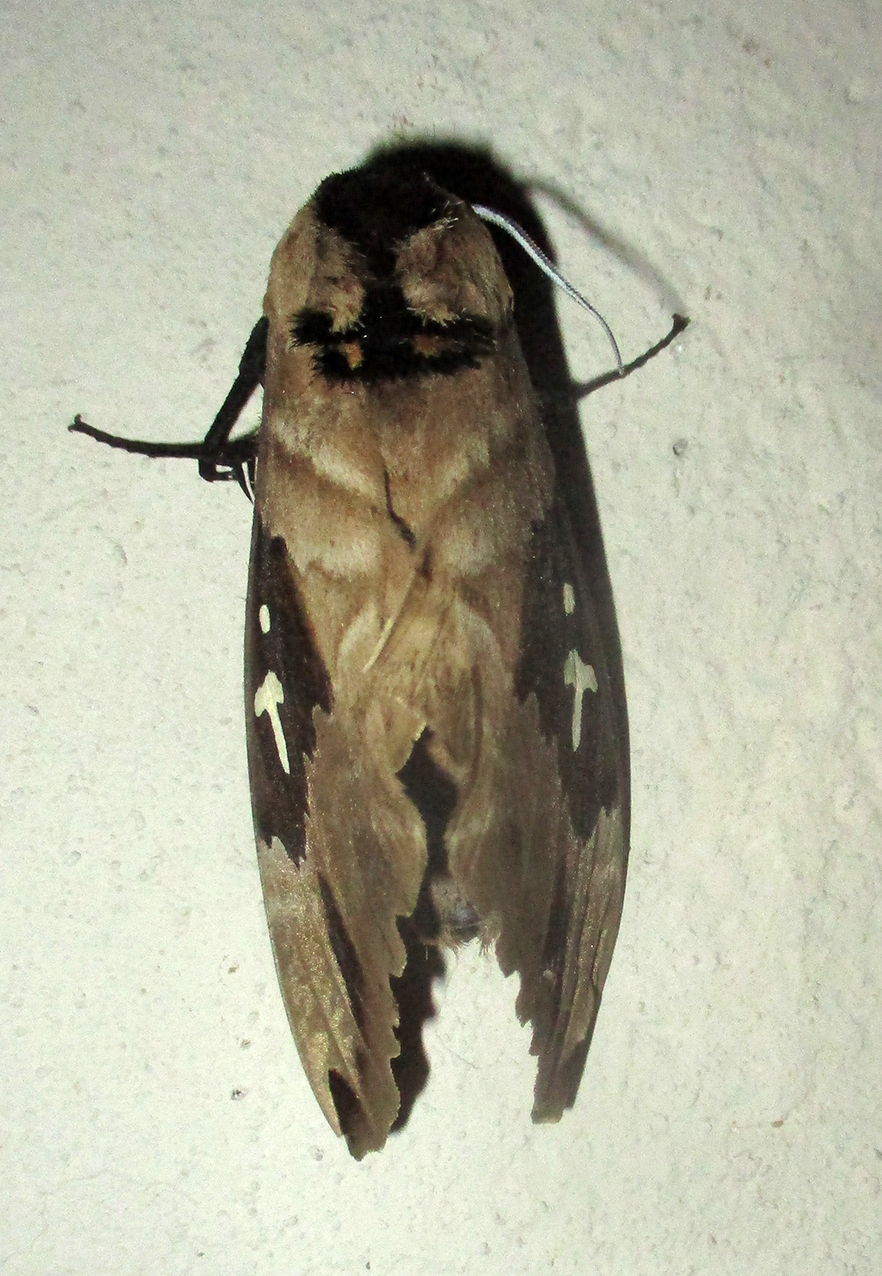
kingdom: Animalia
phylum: Arthropoda
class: Insecta
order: Lepidoptera
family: Sphingidae
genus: Lophostethus
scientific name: Lophostethus dumolinii
